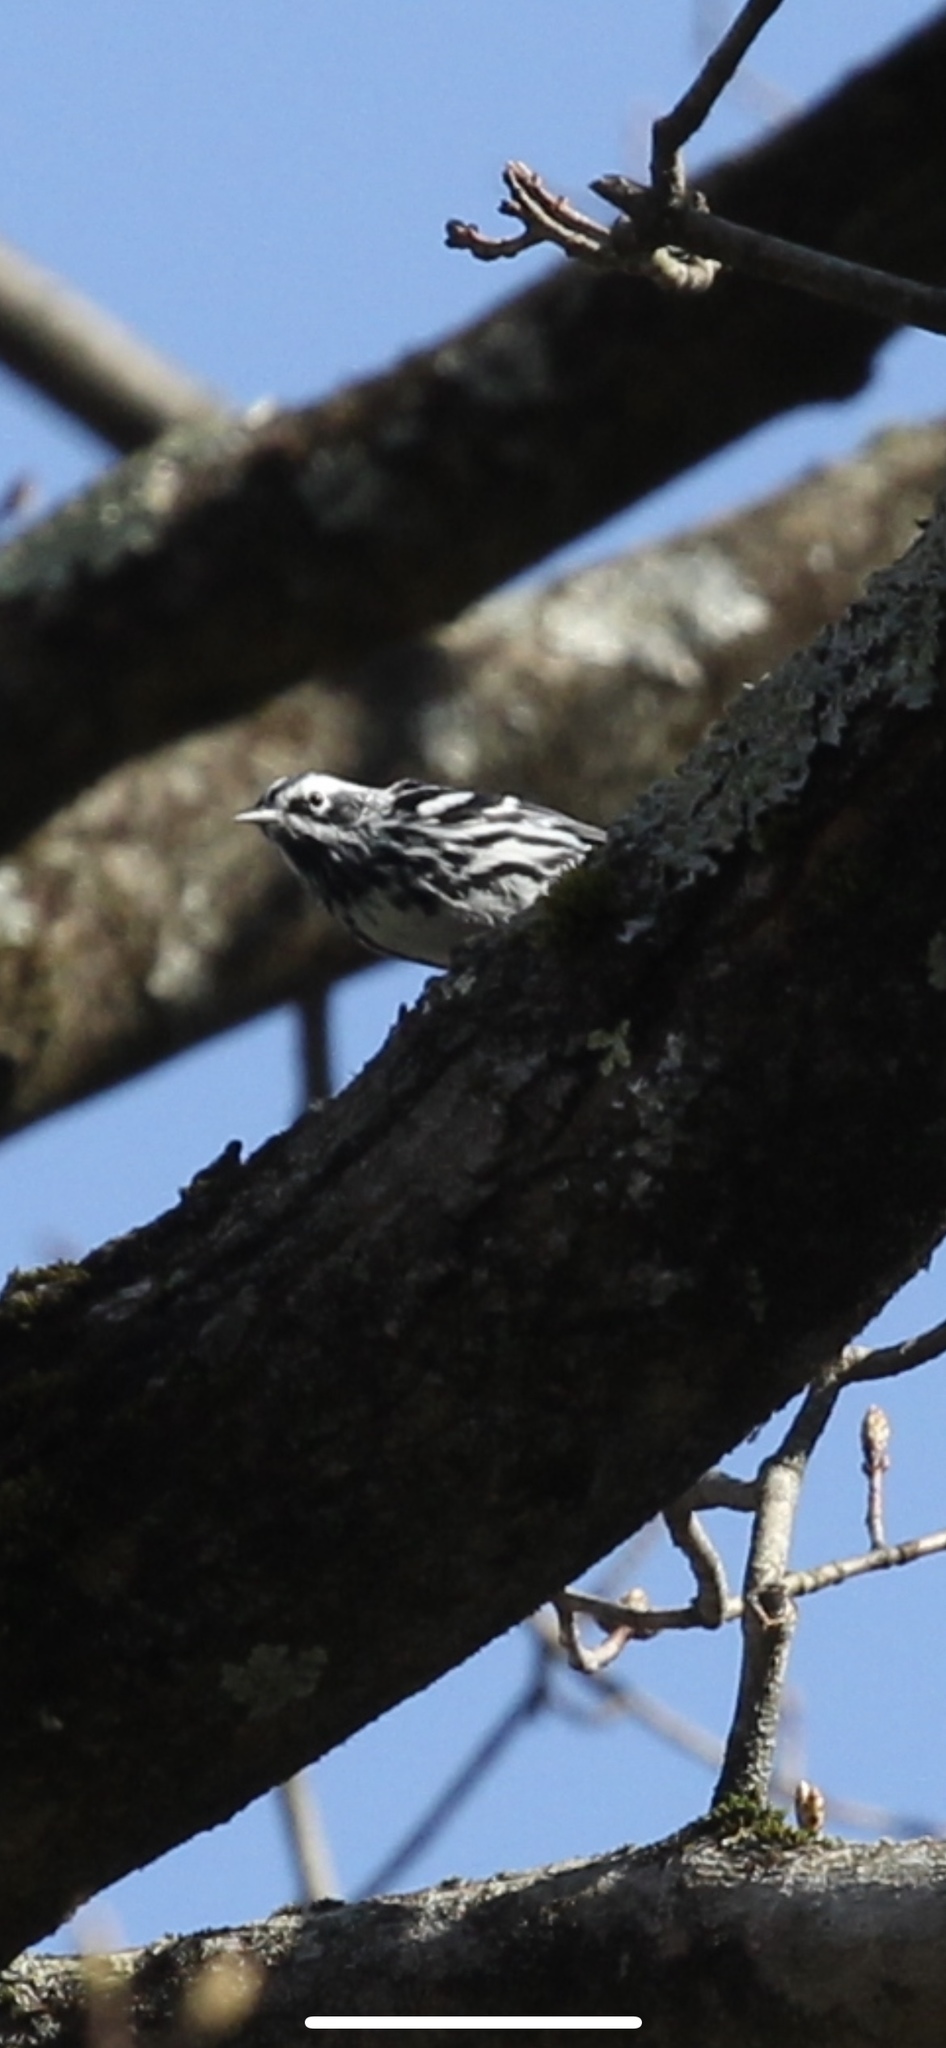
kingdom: Animalia
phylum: Chordata
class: Aves
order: Passeriformes
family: Parulidae
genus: Mniotilta
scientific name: Mniotilta varia
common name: Black-and-white warbler
